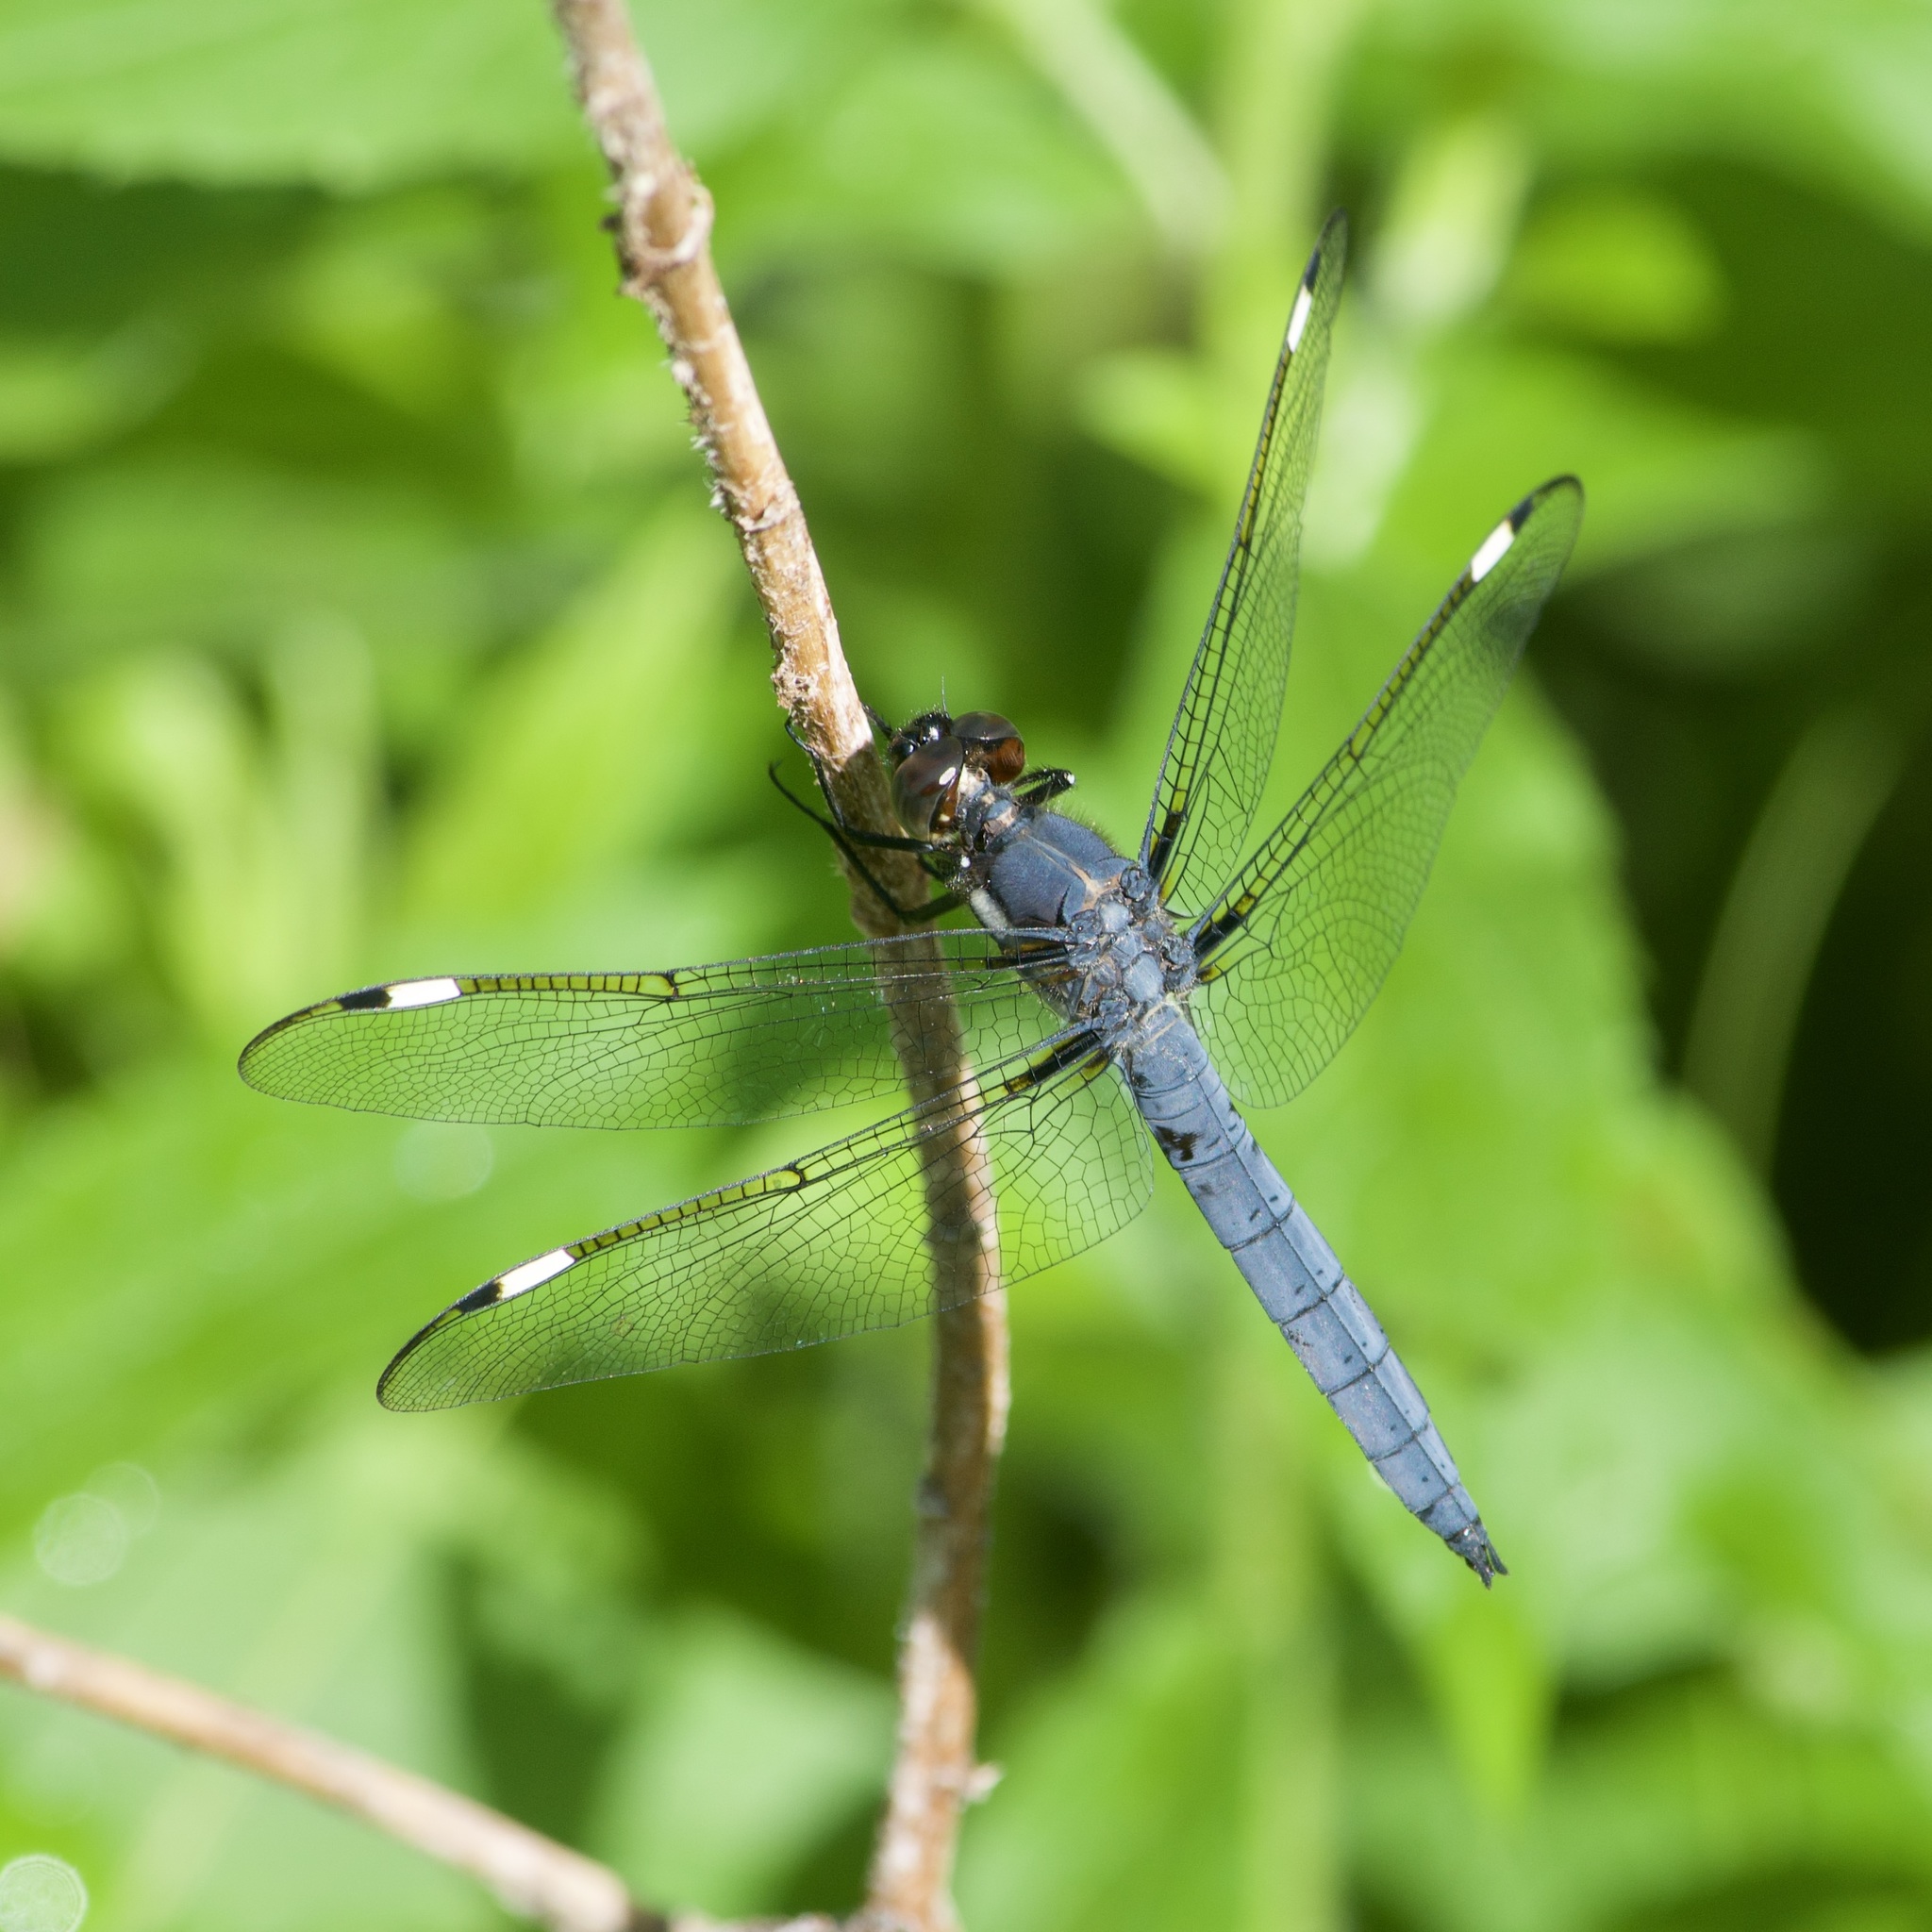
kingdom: Animalia
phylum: Arthropoda
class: Insecta
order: Odonata
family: Libellulidae
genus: Libellula
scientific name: Libellula cyanea
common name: Spangled skimmer
